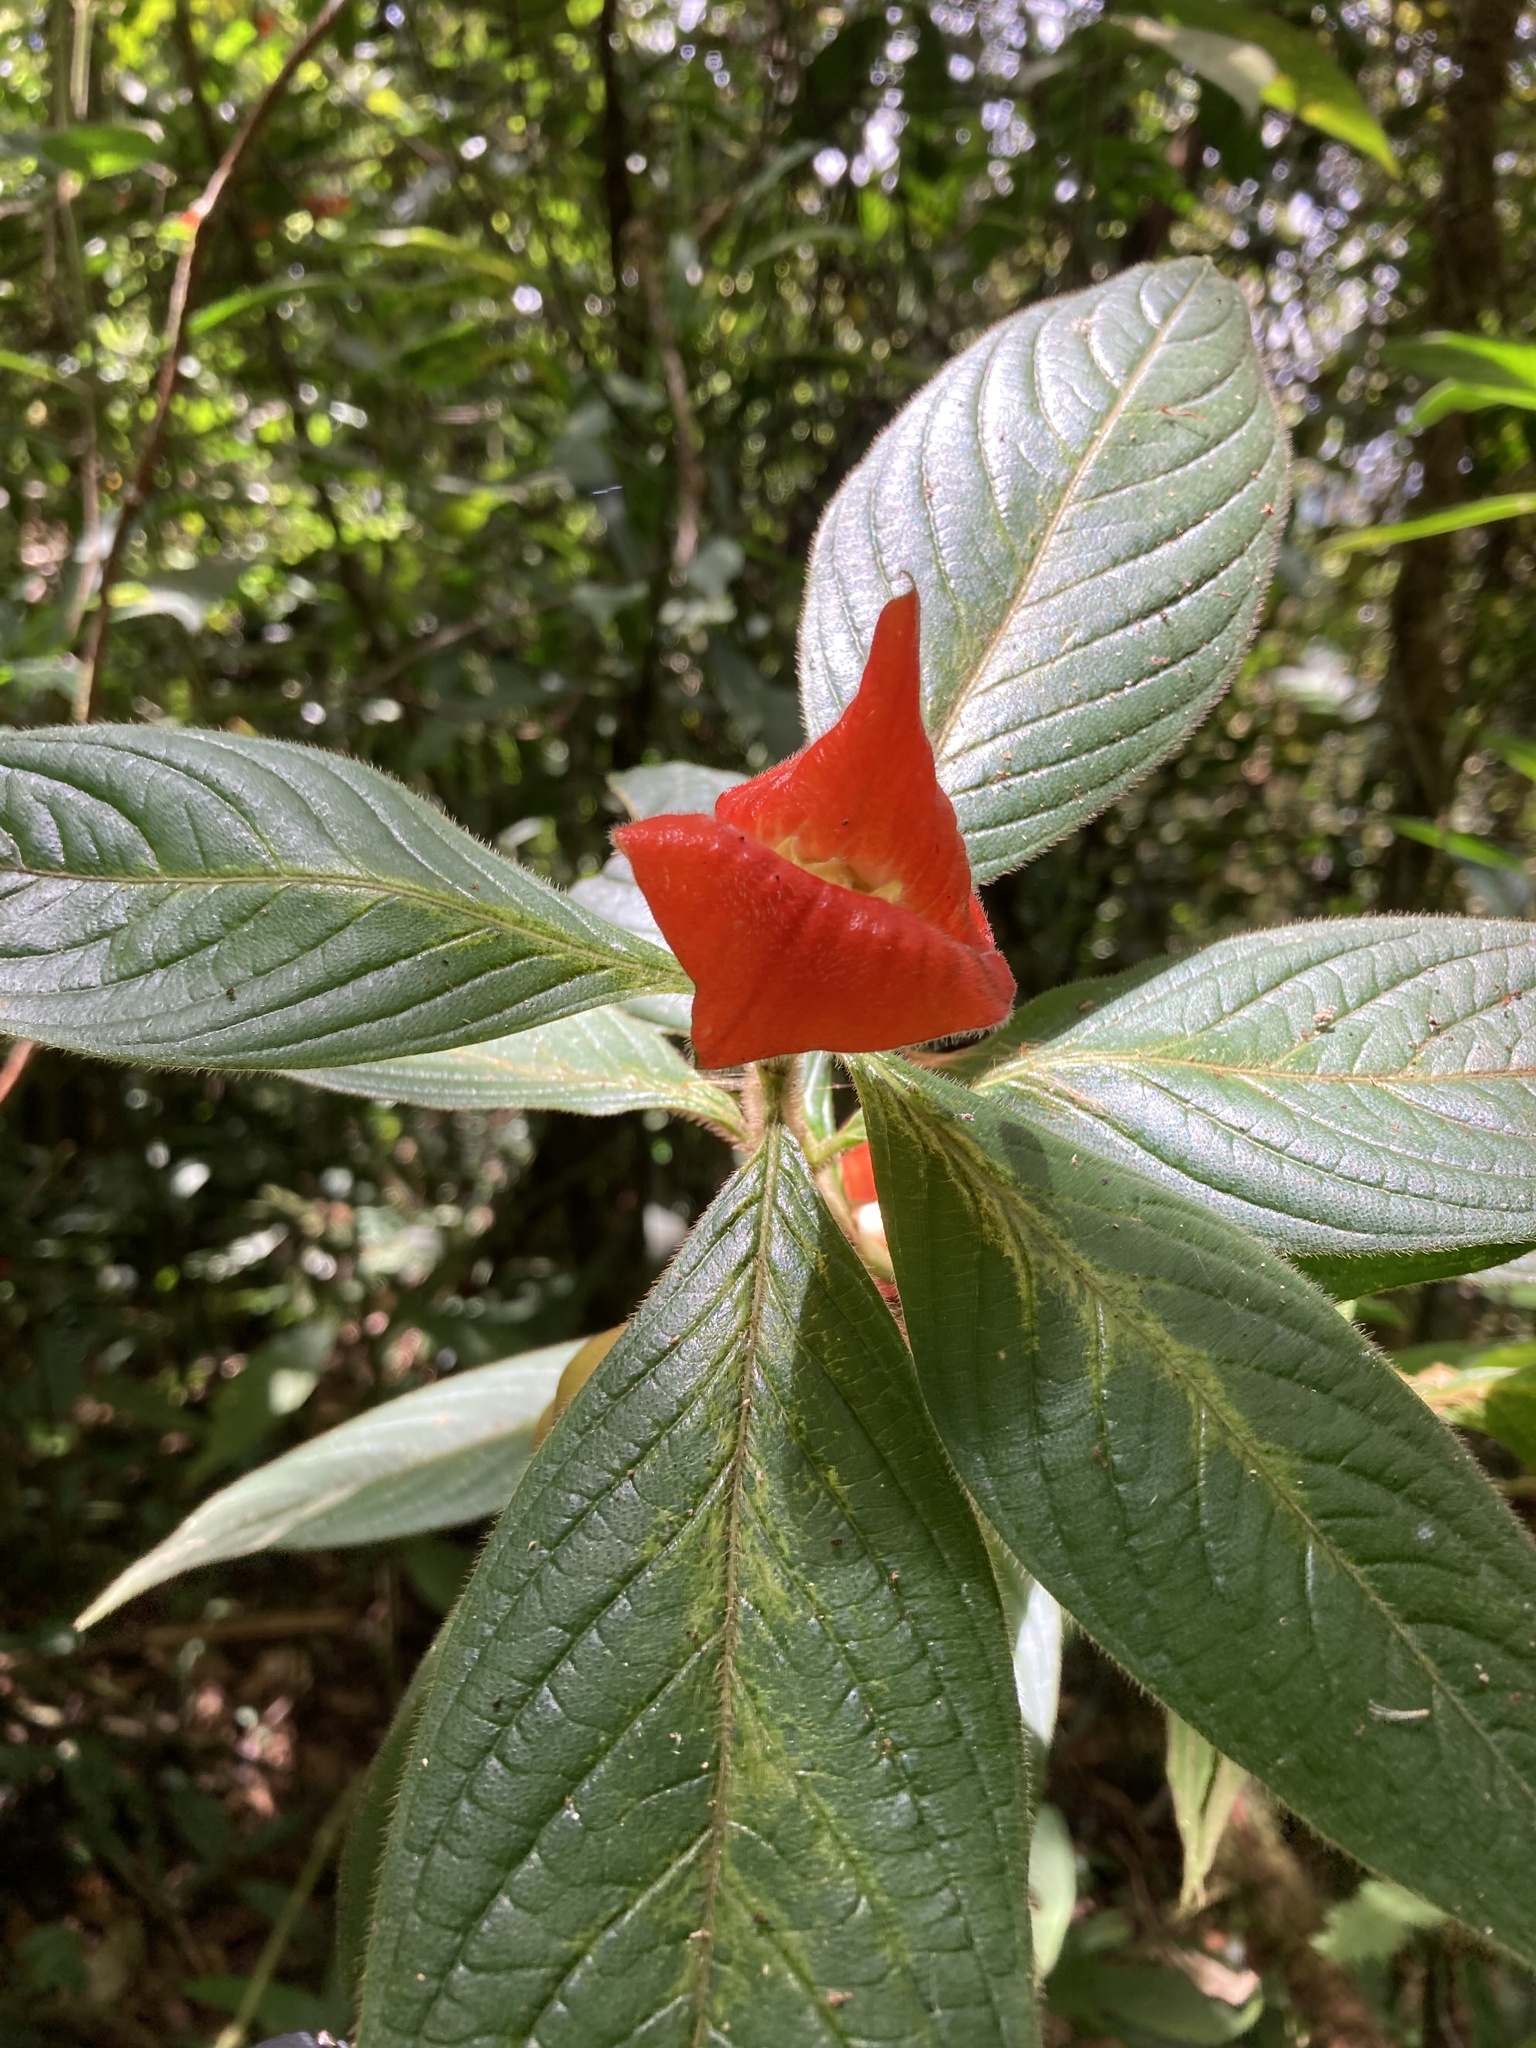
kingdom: Plantae
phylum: Tracheophyta
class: Magnoliopsida
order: Gentianales
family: Rubiaceae
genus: Palicourea
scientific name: Palicourea tomentosa
